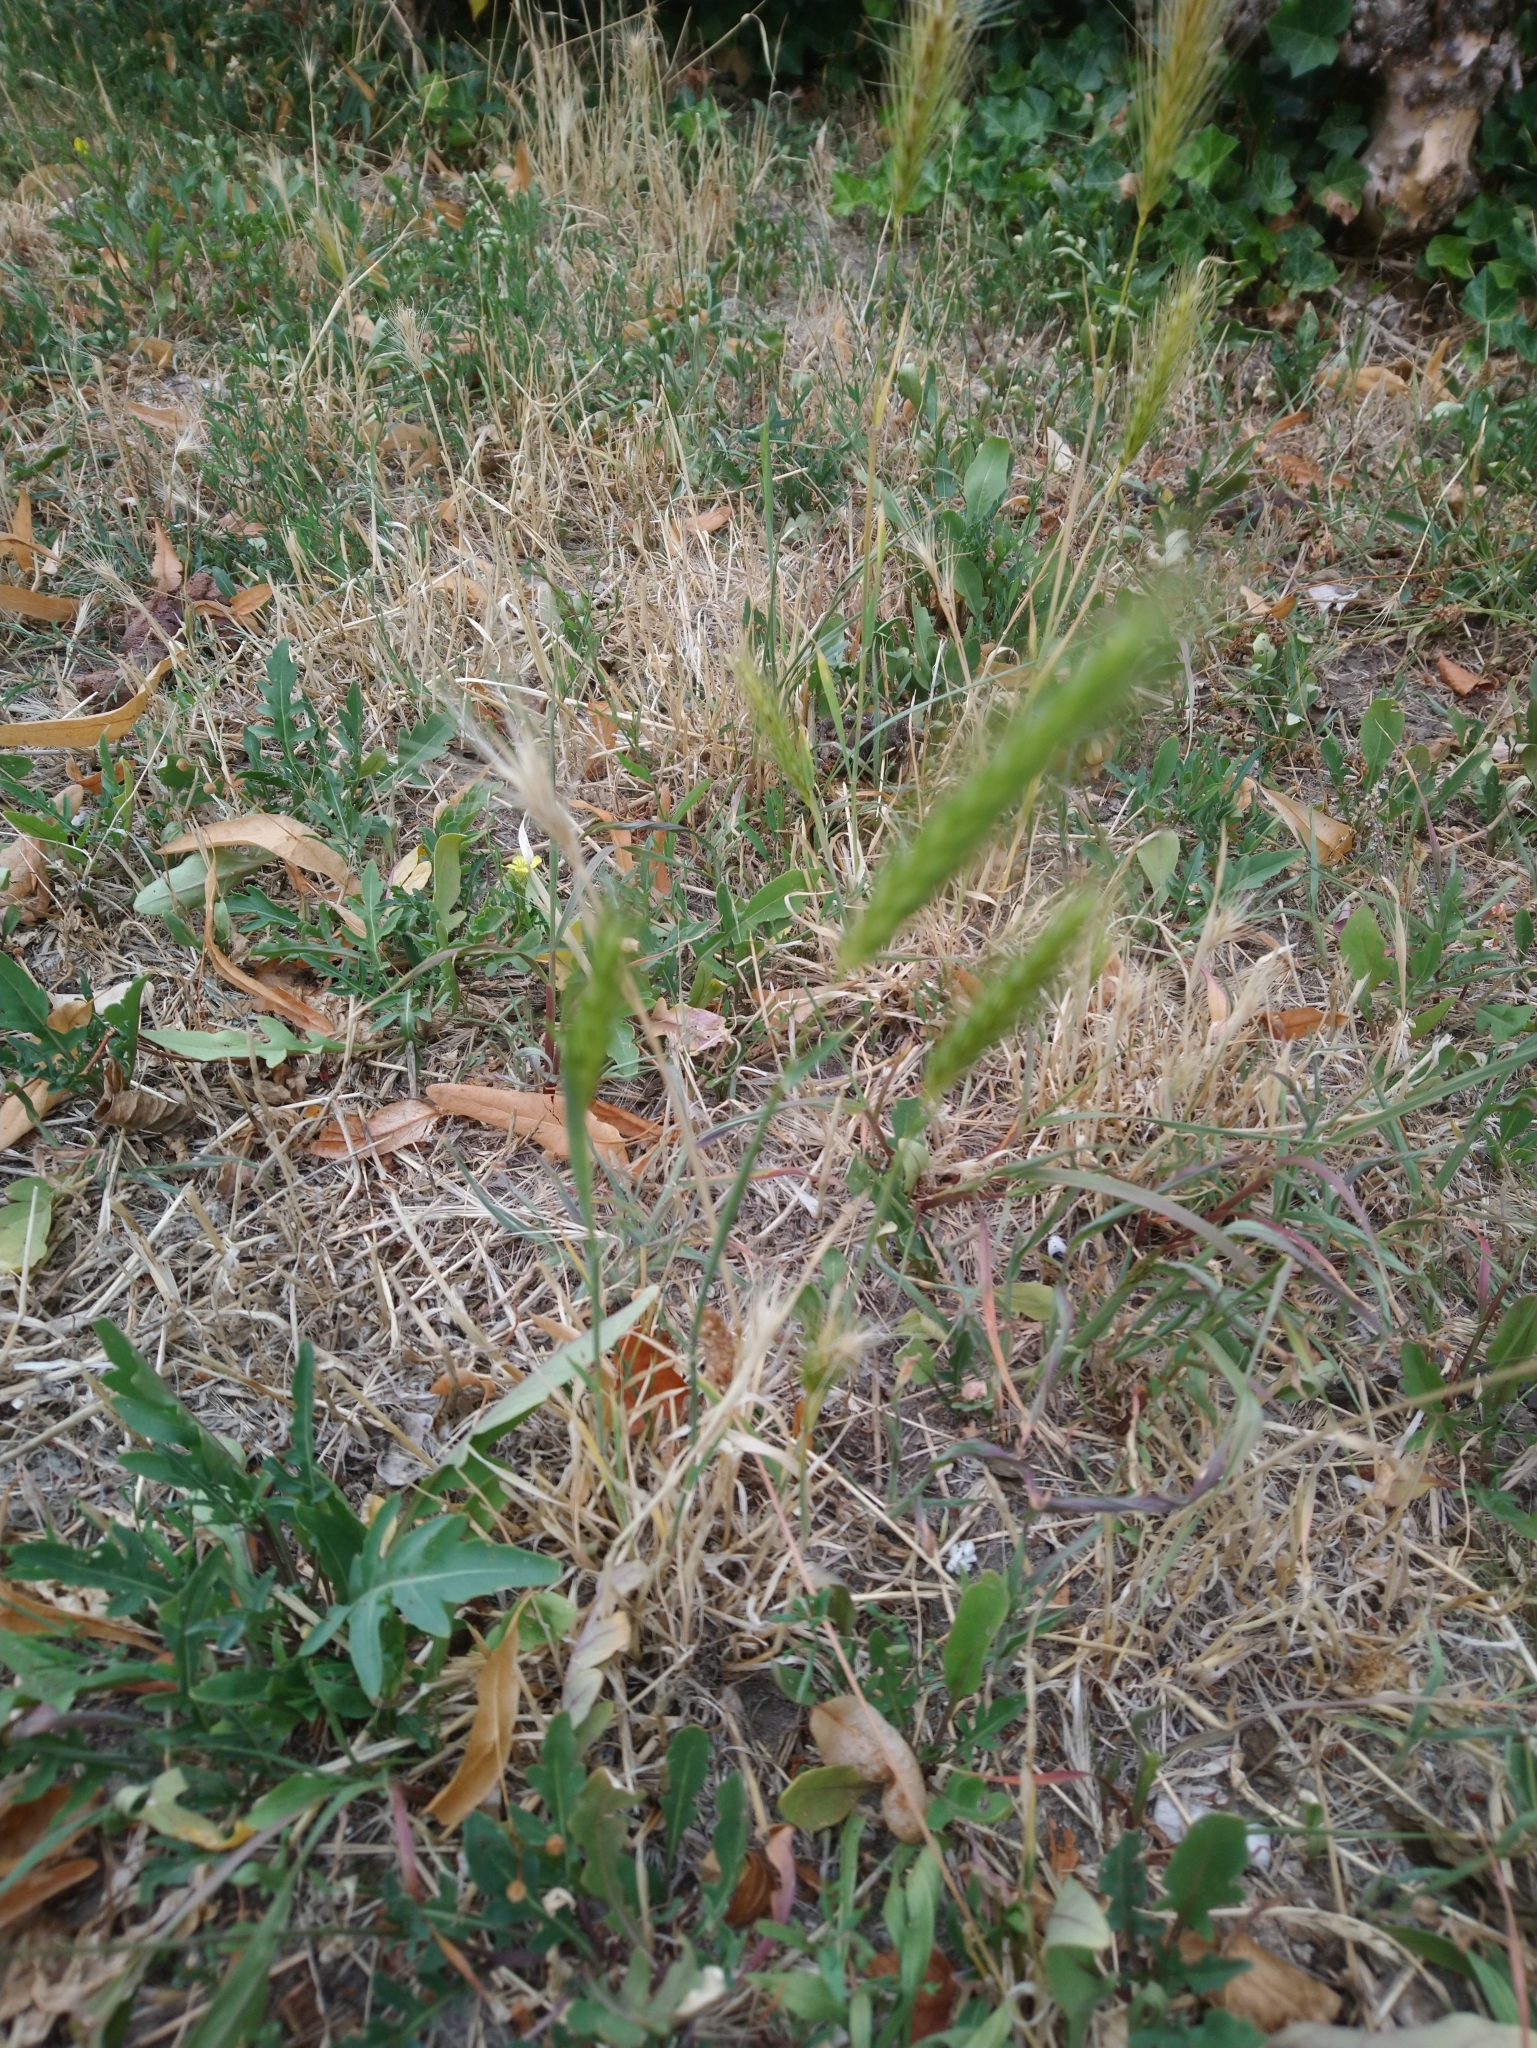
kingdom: Plantae
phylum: Tracheophyta
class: Liliopsida
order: Poales
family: Poaceae
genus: Hordeum
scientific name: Hordeum murinum
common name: Wall barley
